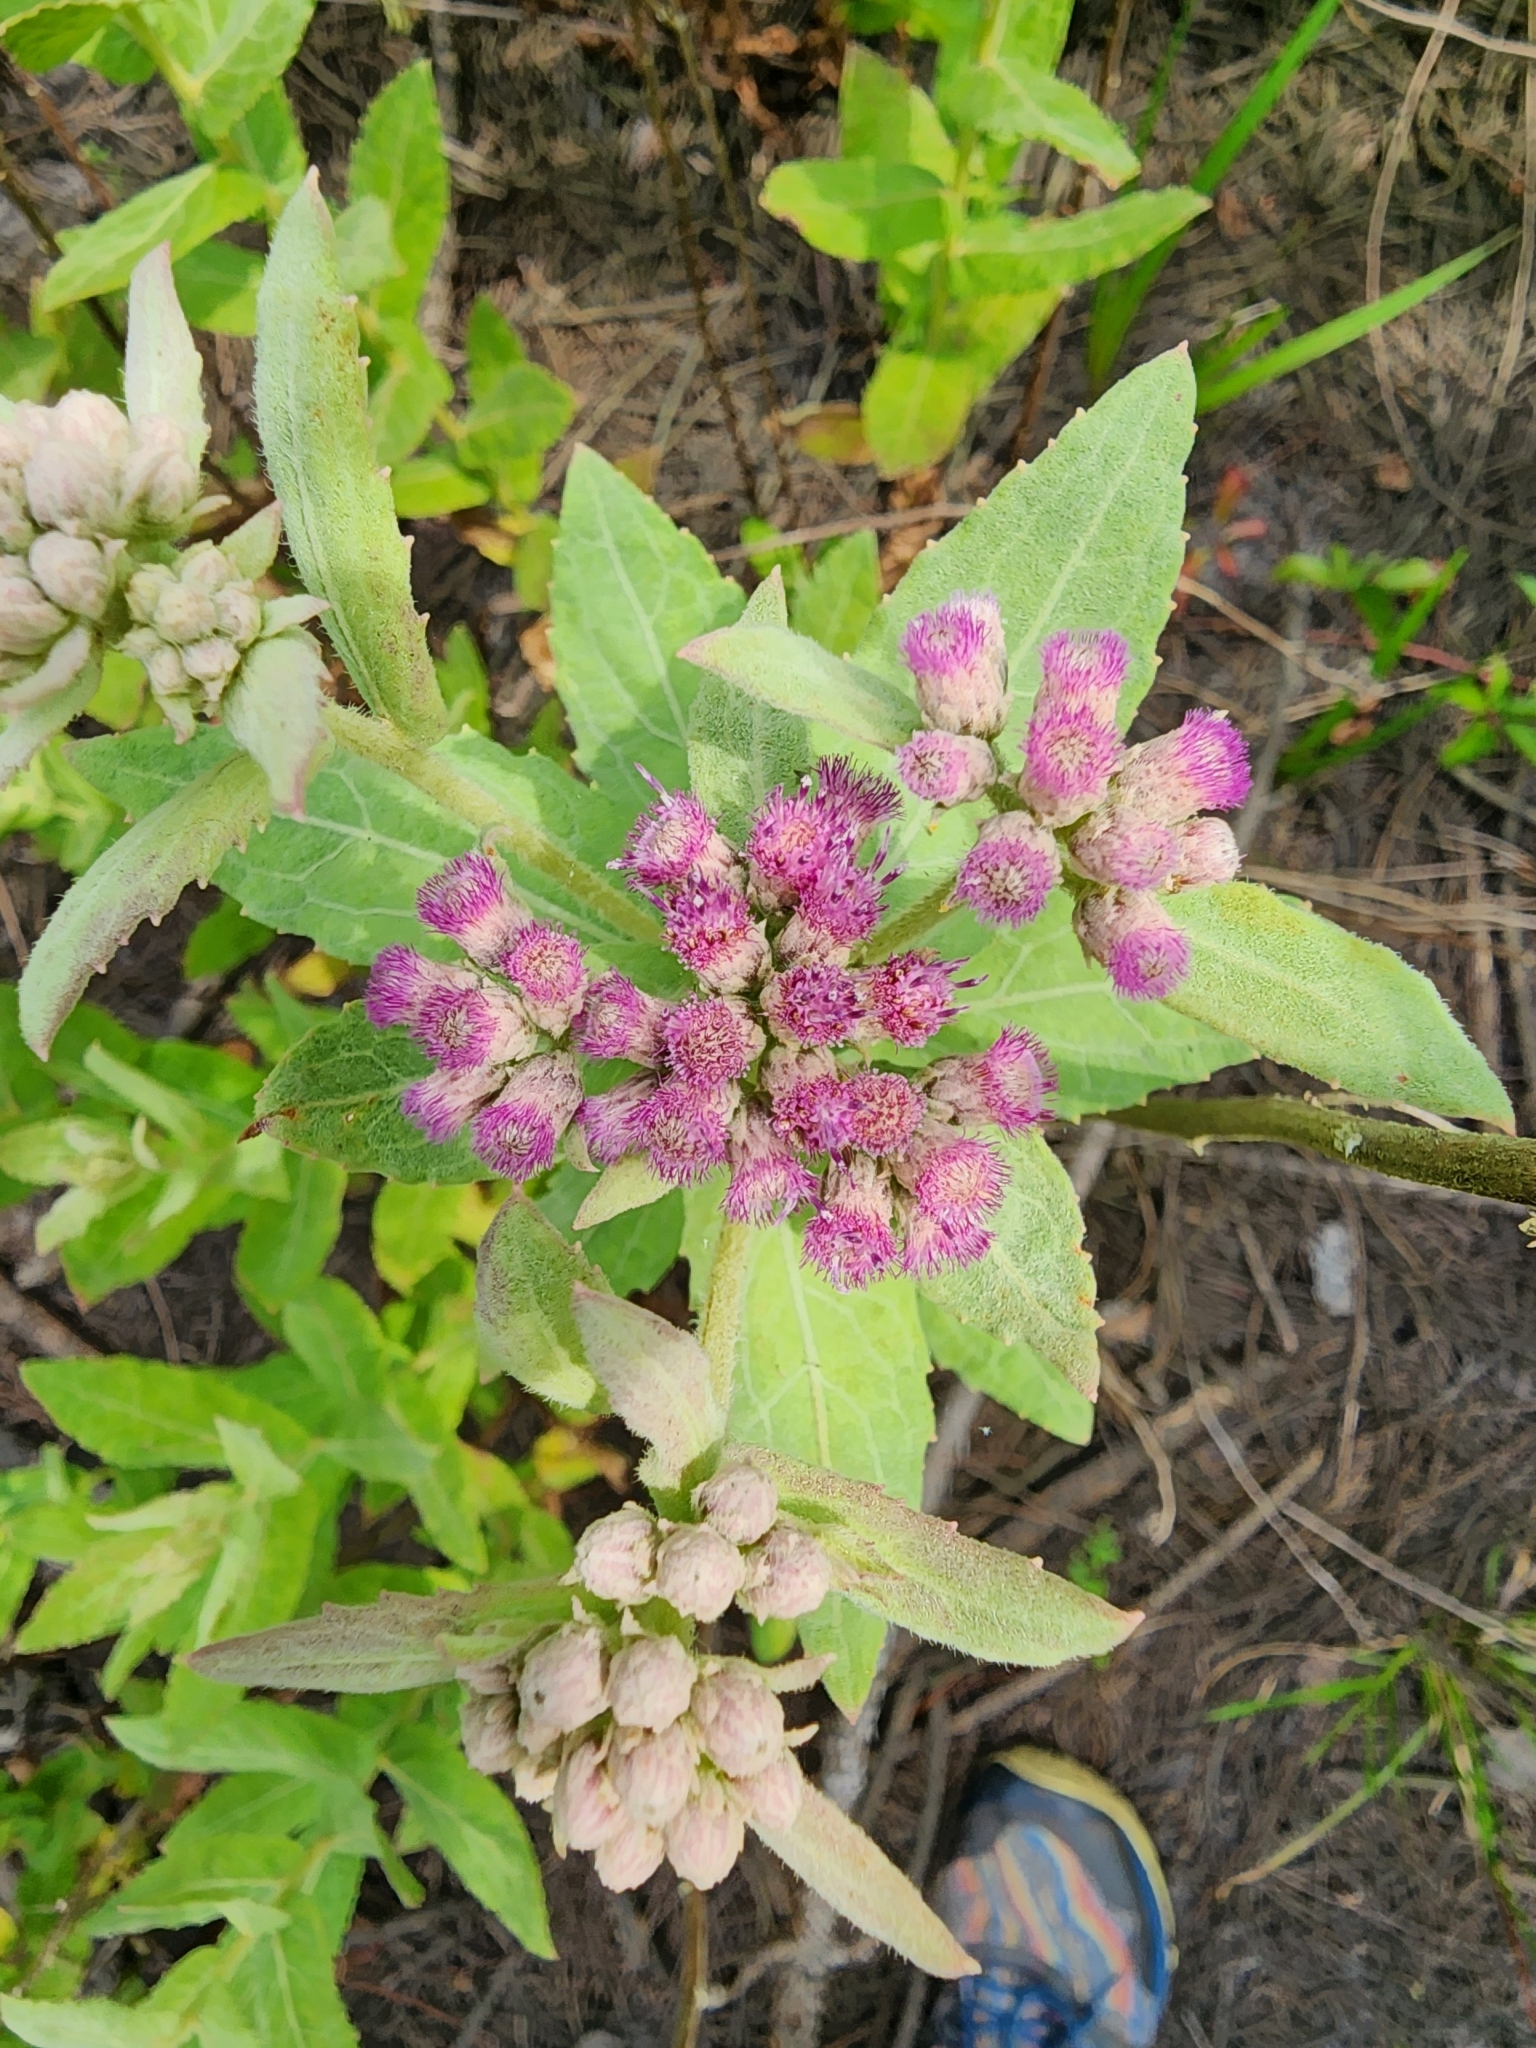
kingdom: Plantae
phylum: Tracheophyta
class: Magnoliopsida
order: Asterales
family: Asteraceae
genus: Pluchea
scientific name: Pluchea baccharis
